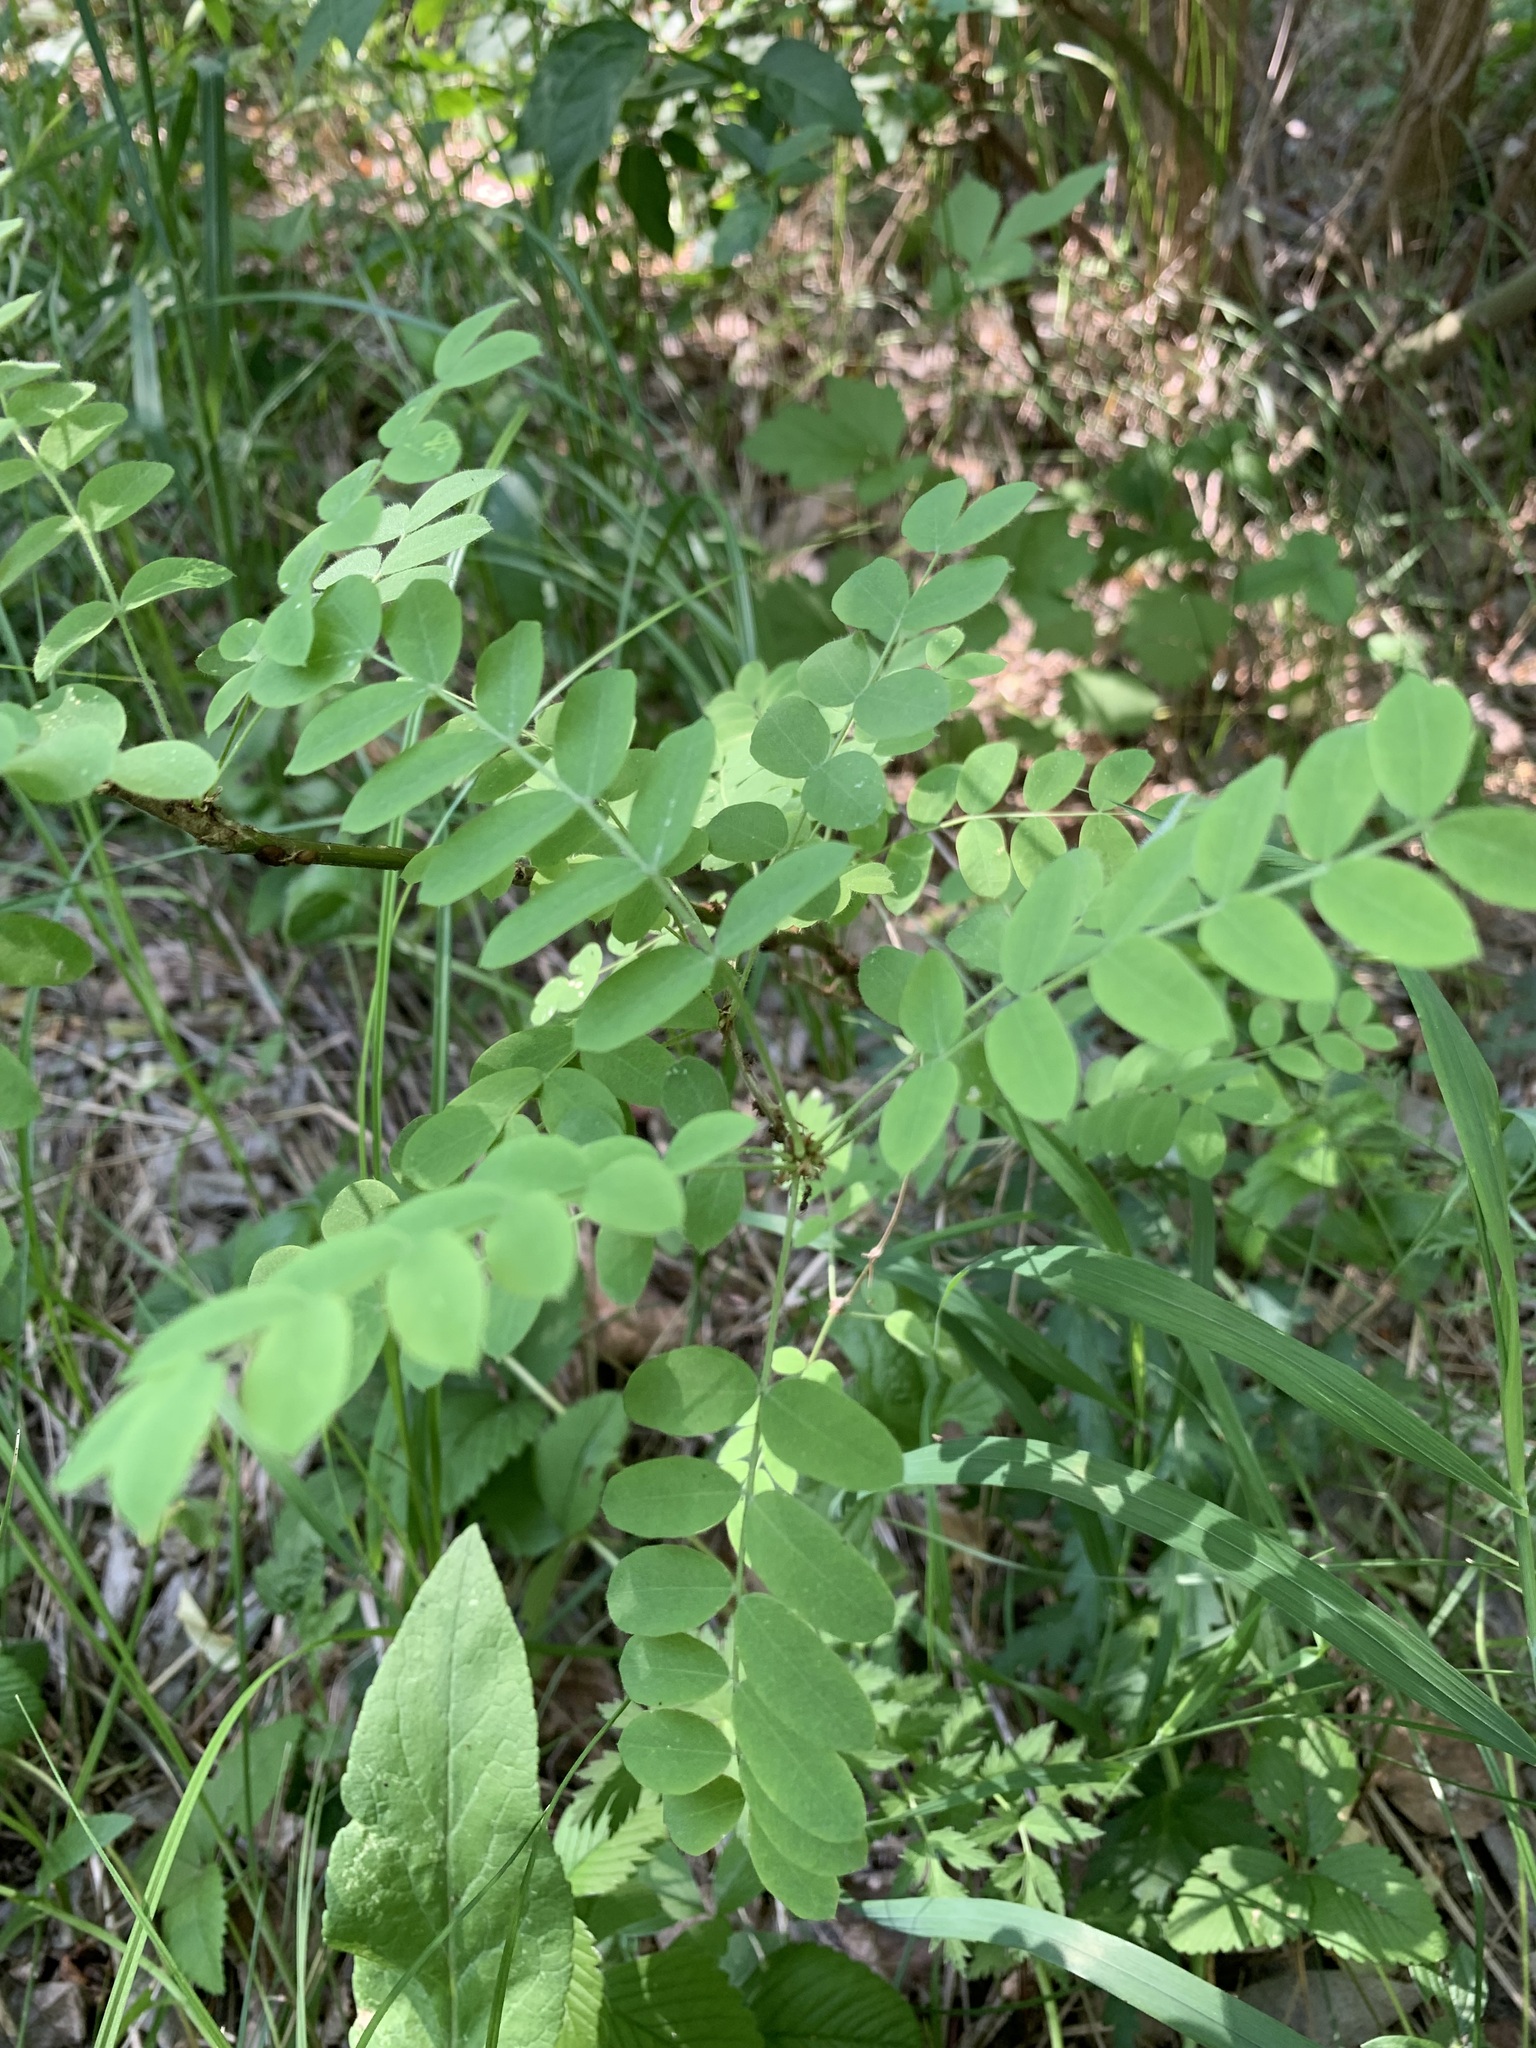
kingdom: Plantae
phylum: Tracheophyta
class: Magnoliopsida
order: Fabales
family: Fabaceae
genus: Caragana
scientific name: Caragana arborescens
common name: Siberian peashrub
